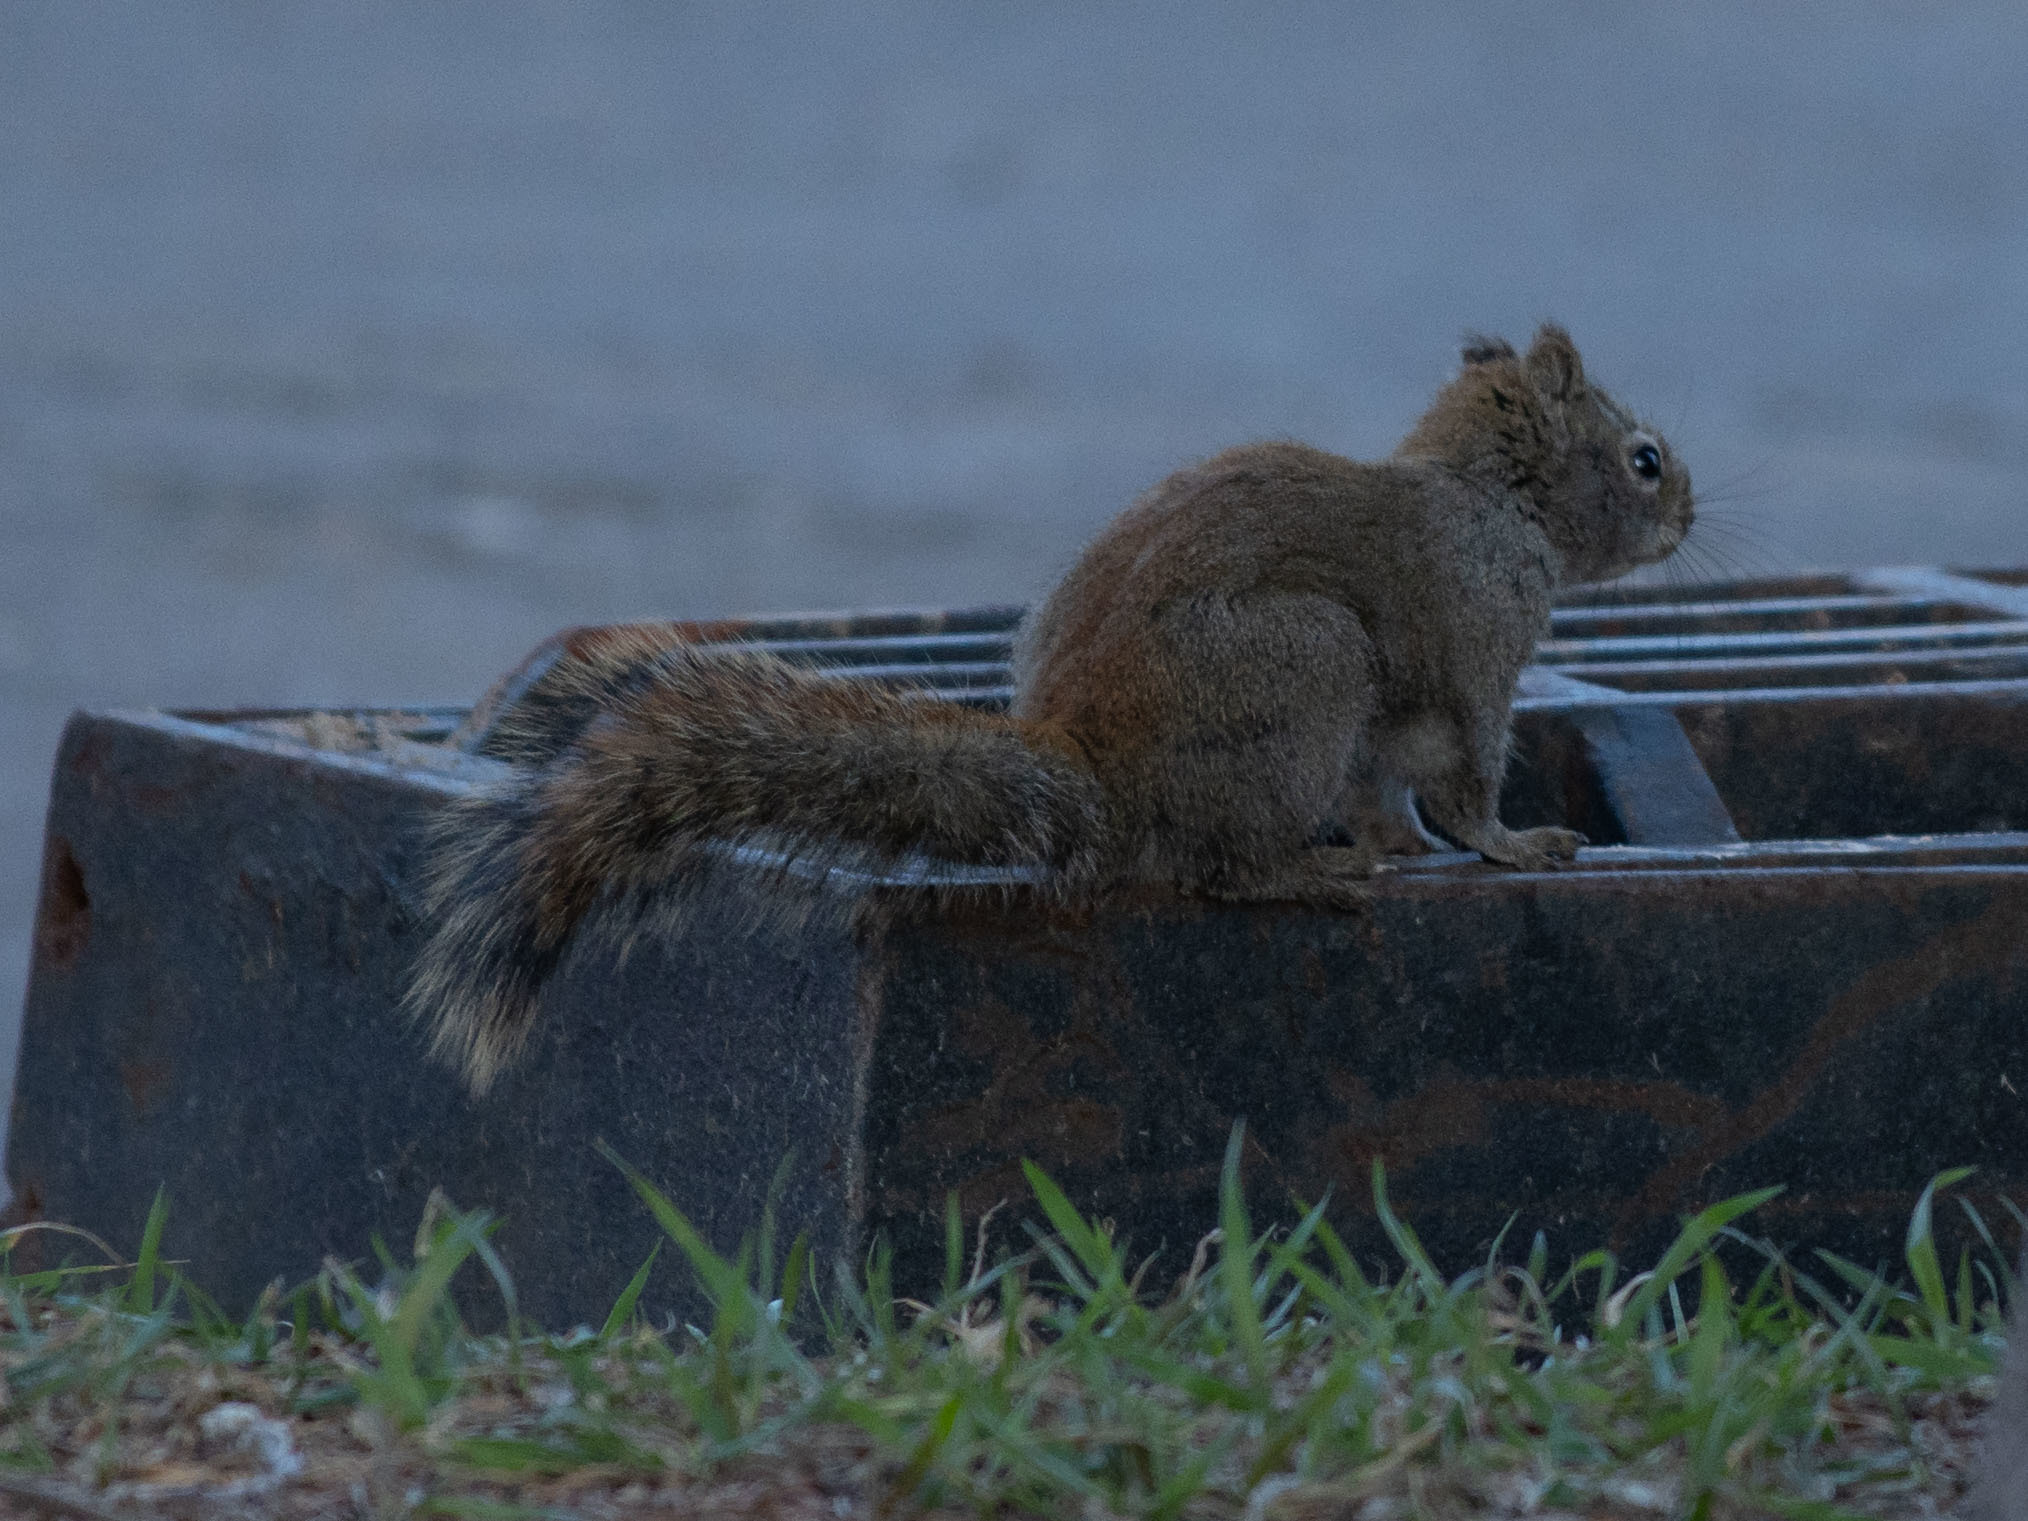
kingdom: Animalia
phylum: Chordata
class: Mammalia
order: Rodentia
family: Sciuridae
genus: Tamiasciurus
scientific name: Tamiasciurus hudsonicus
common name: Red squirrel
